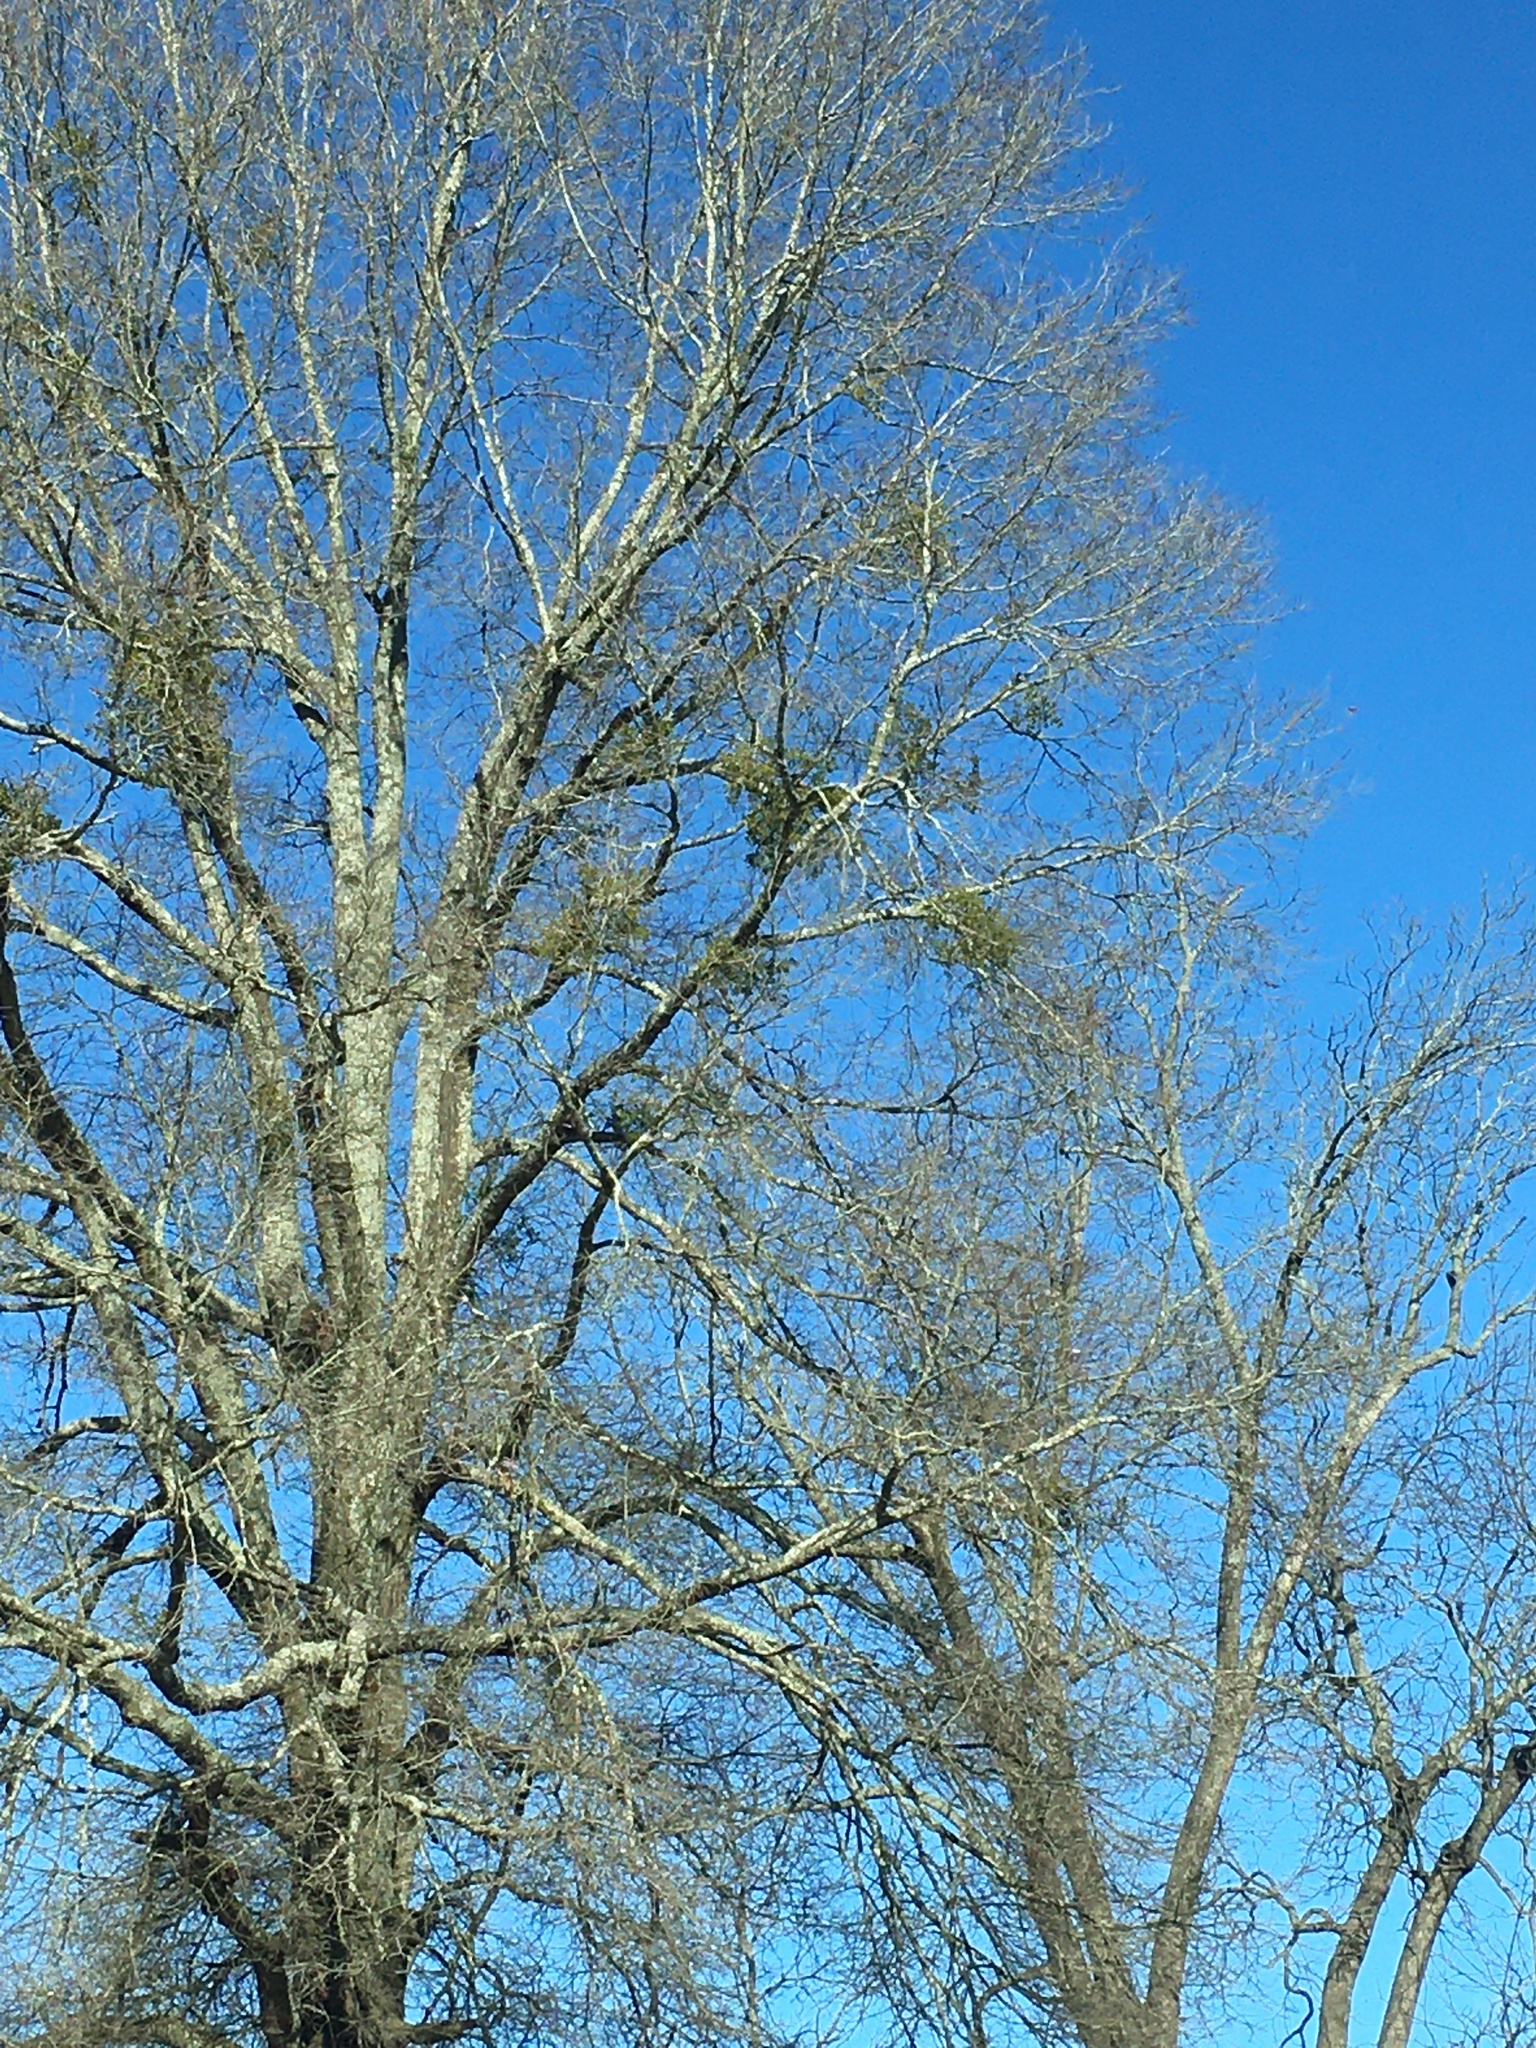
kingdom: Plantae
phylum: Tracheophyta
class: Magnoliopsida
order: Santalales
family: Viscaceae
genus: Phoradendron
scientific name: Phoradendron leucarpum
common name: Pacific mistletoe
